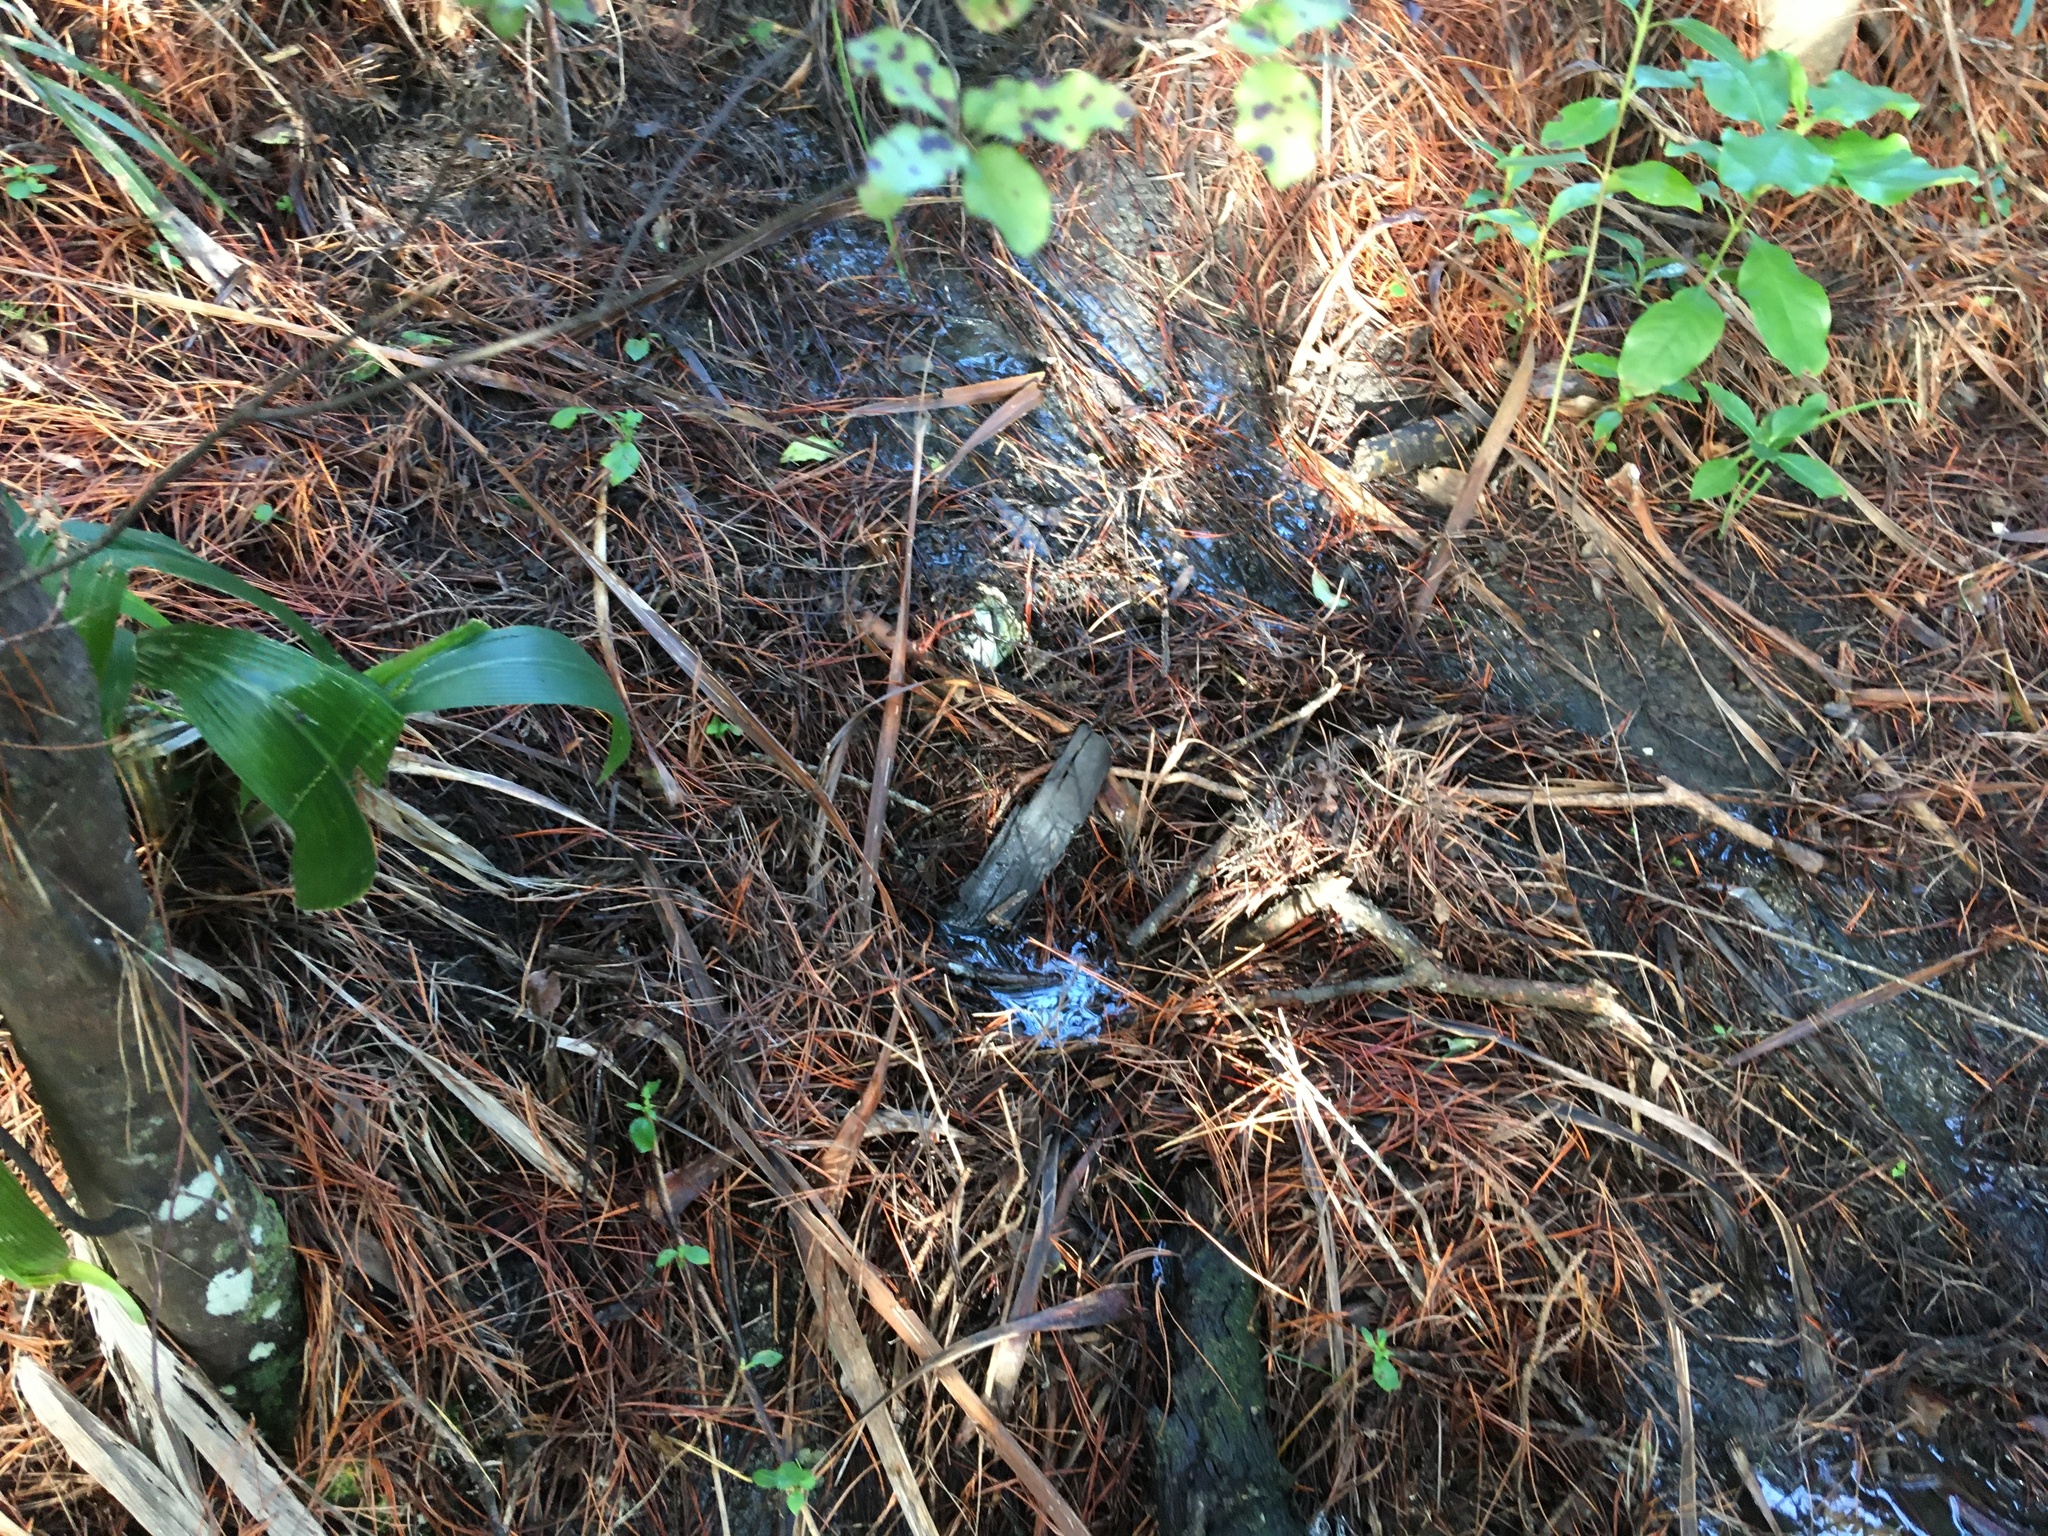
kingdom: Plantae
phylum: Tracheophyta
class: Magnoliopsida
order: Apiales
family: Pittosporaceae
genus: Pittosporum
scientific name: Pittosporum tenuifolium
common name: Kohuhu
